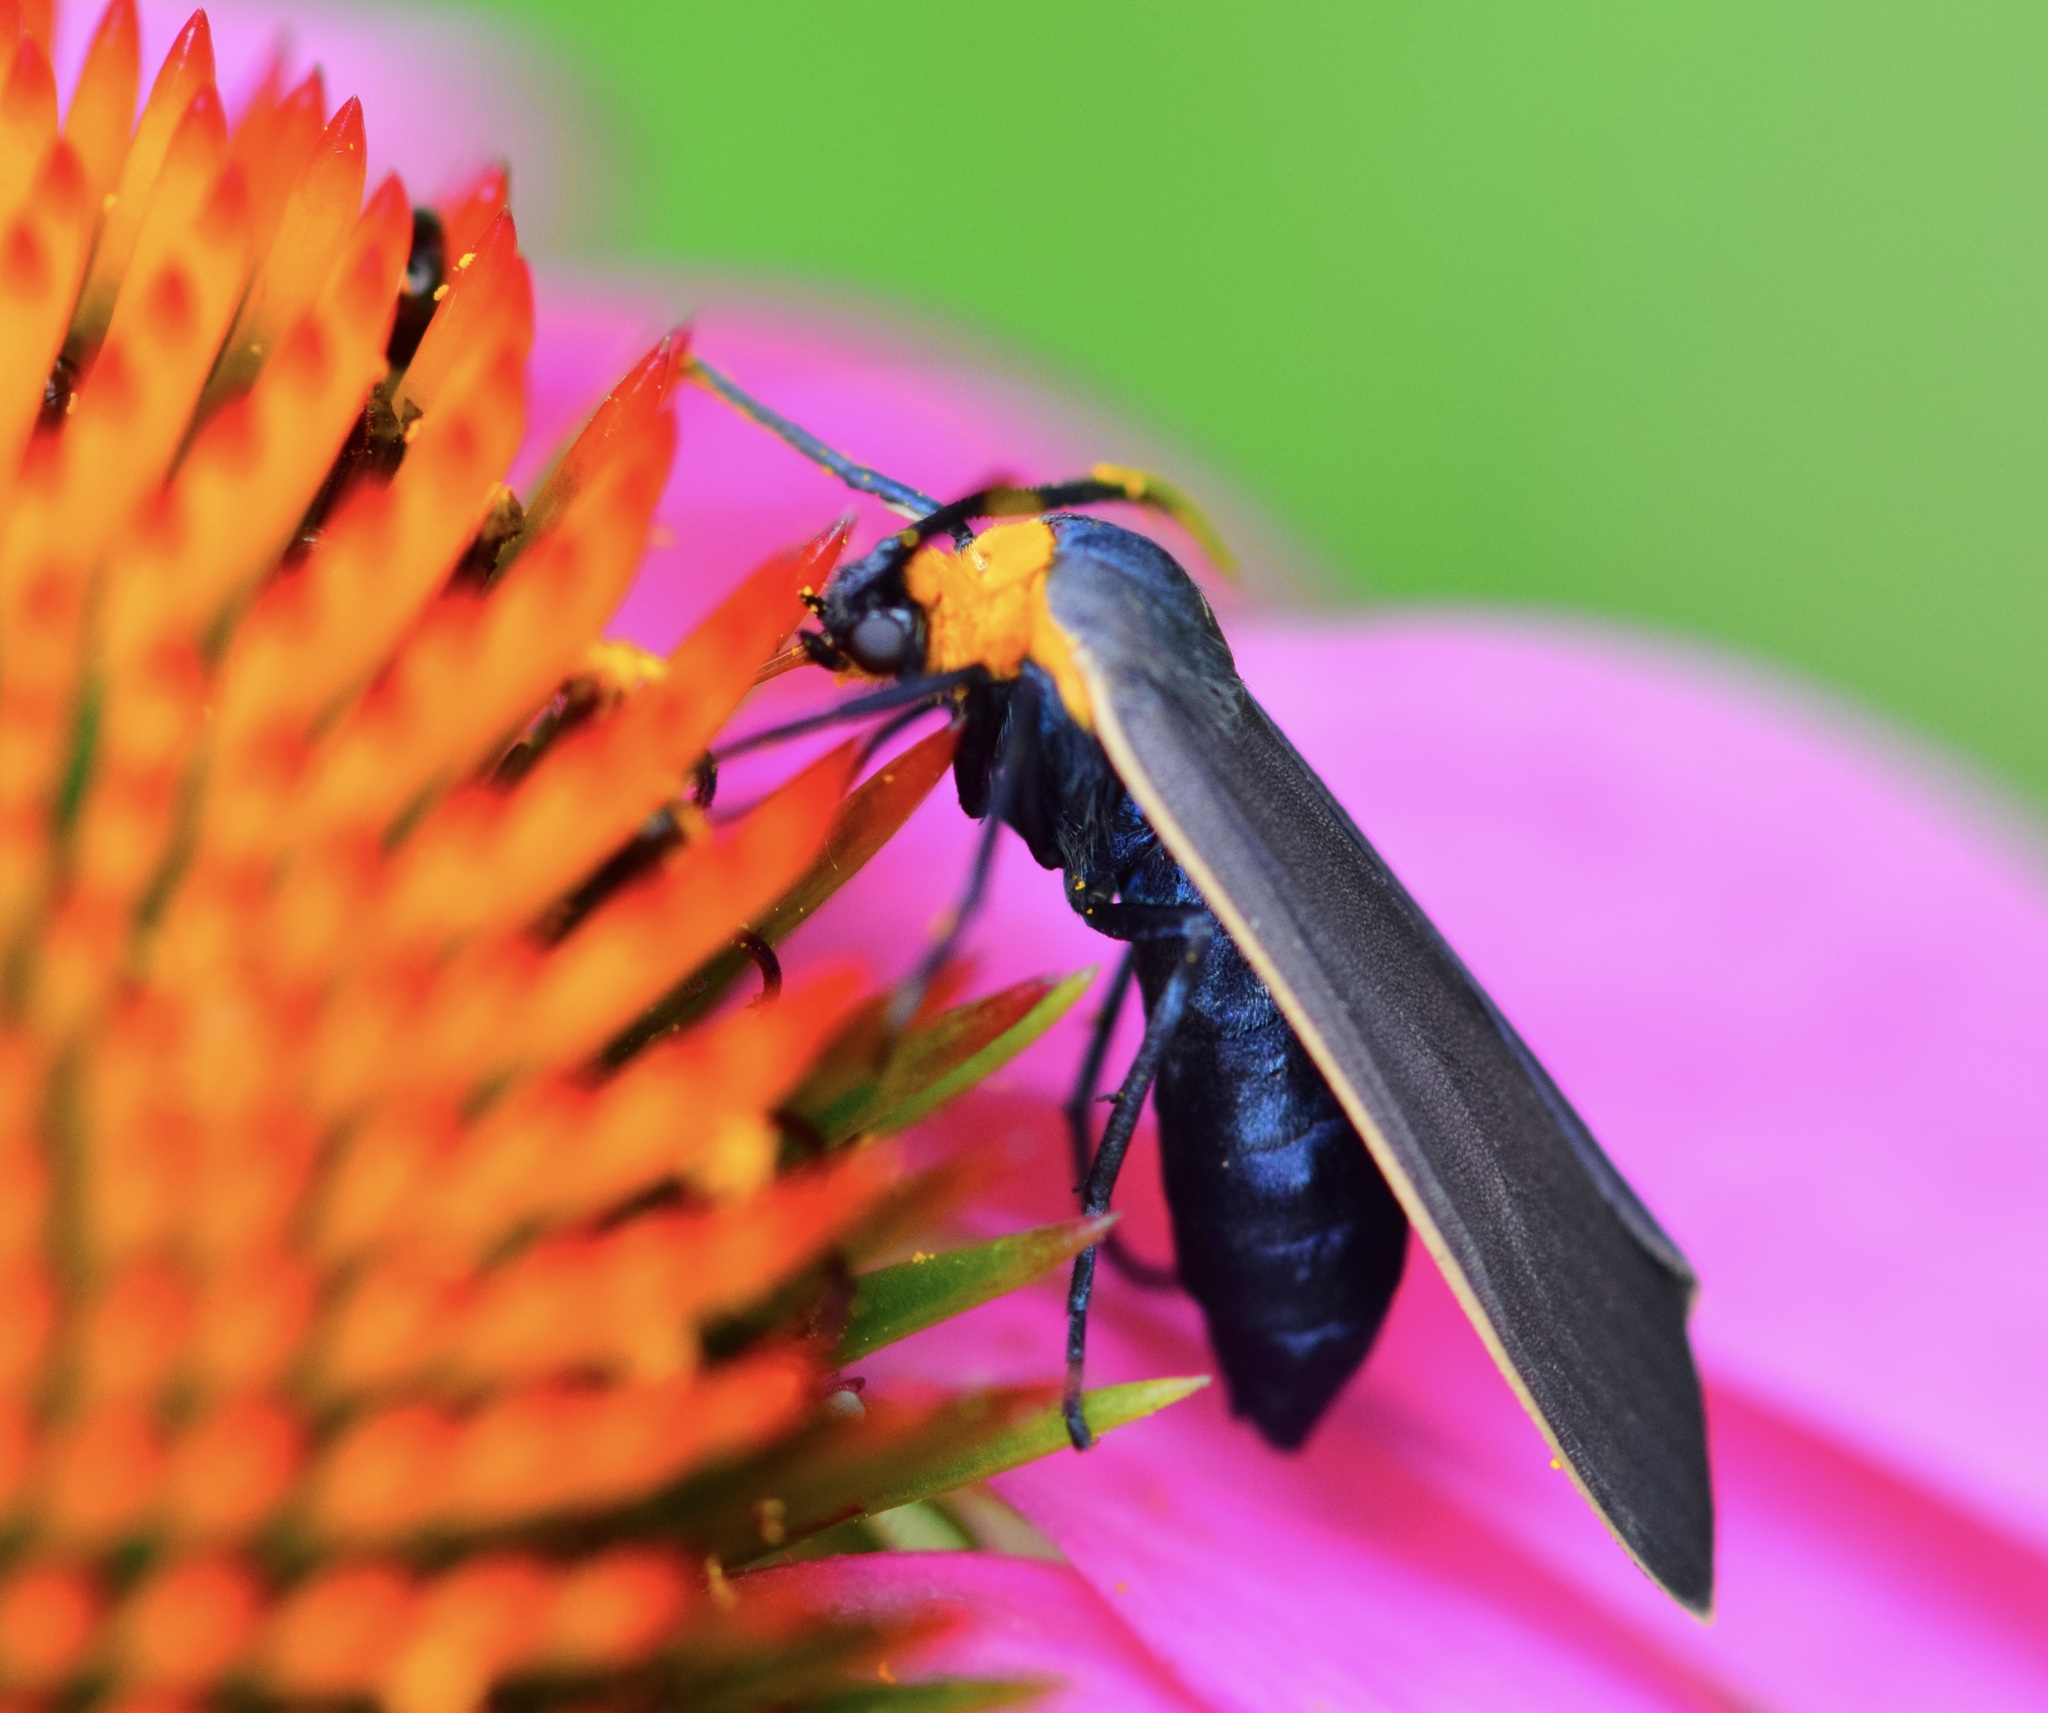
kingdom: Animalia
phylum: Arthropoda
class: Insecta
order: Lepidoptera
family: Erebidae
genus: Cisseps
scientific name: Cisseps fulvicollis
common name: Yellow-collared scape moth
